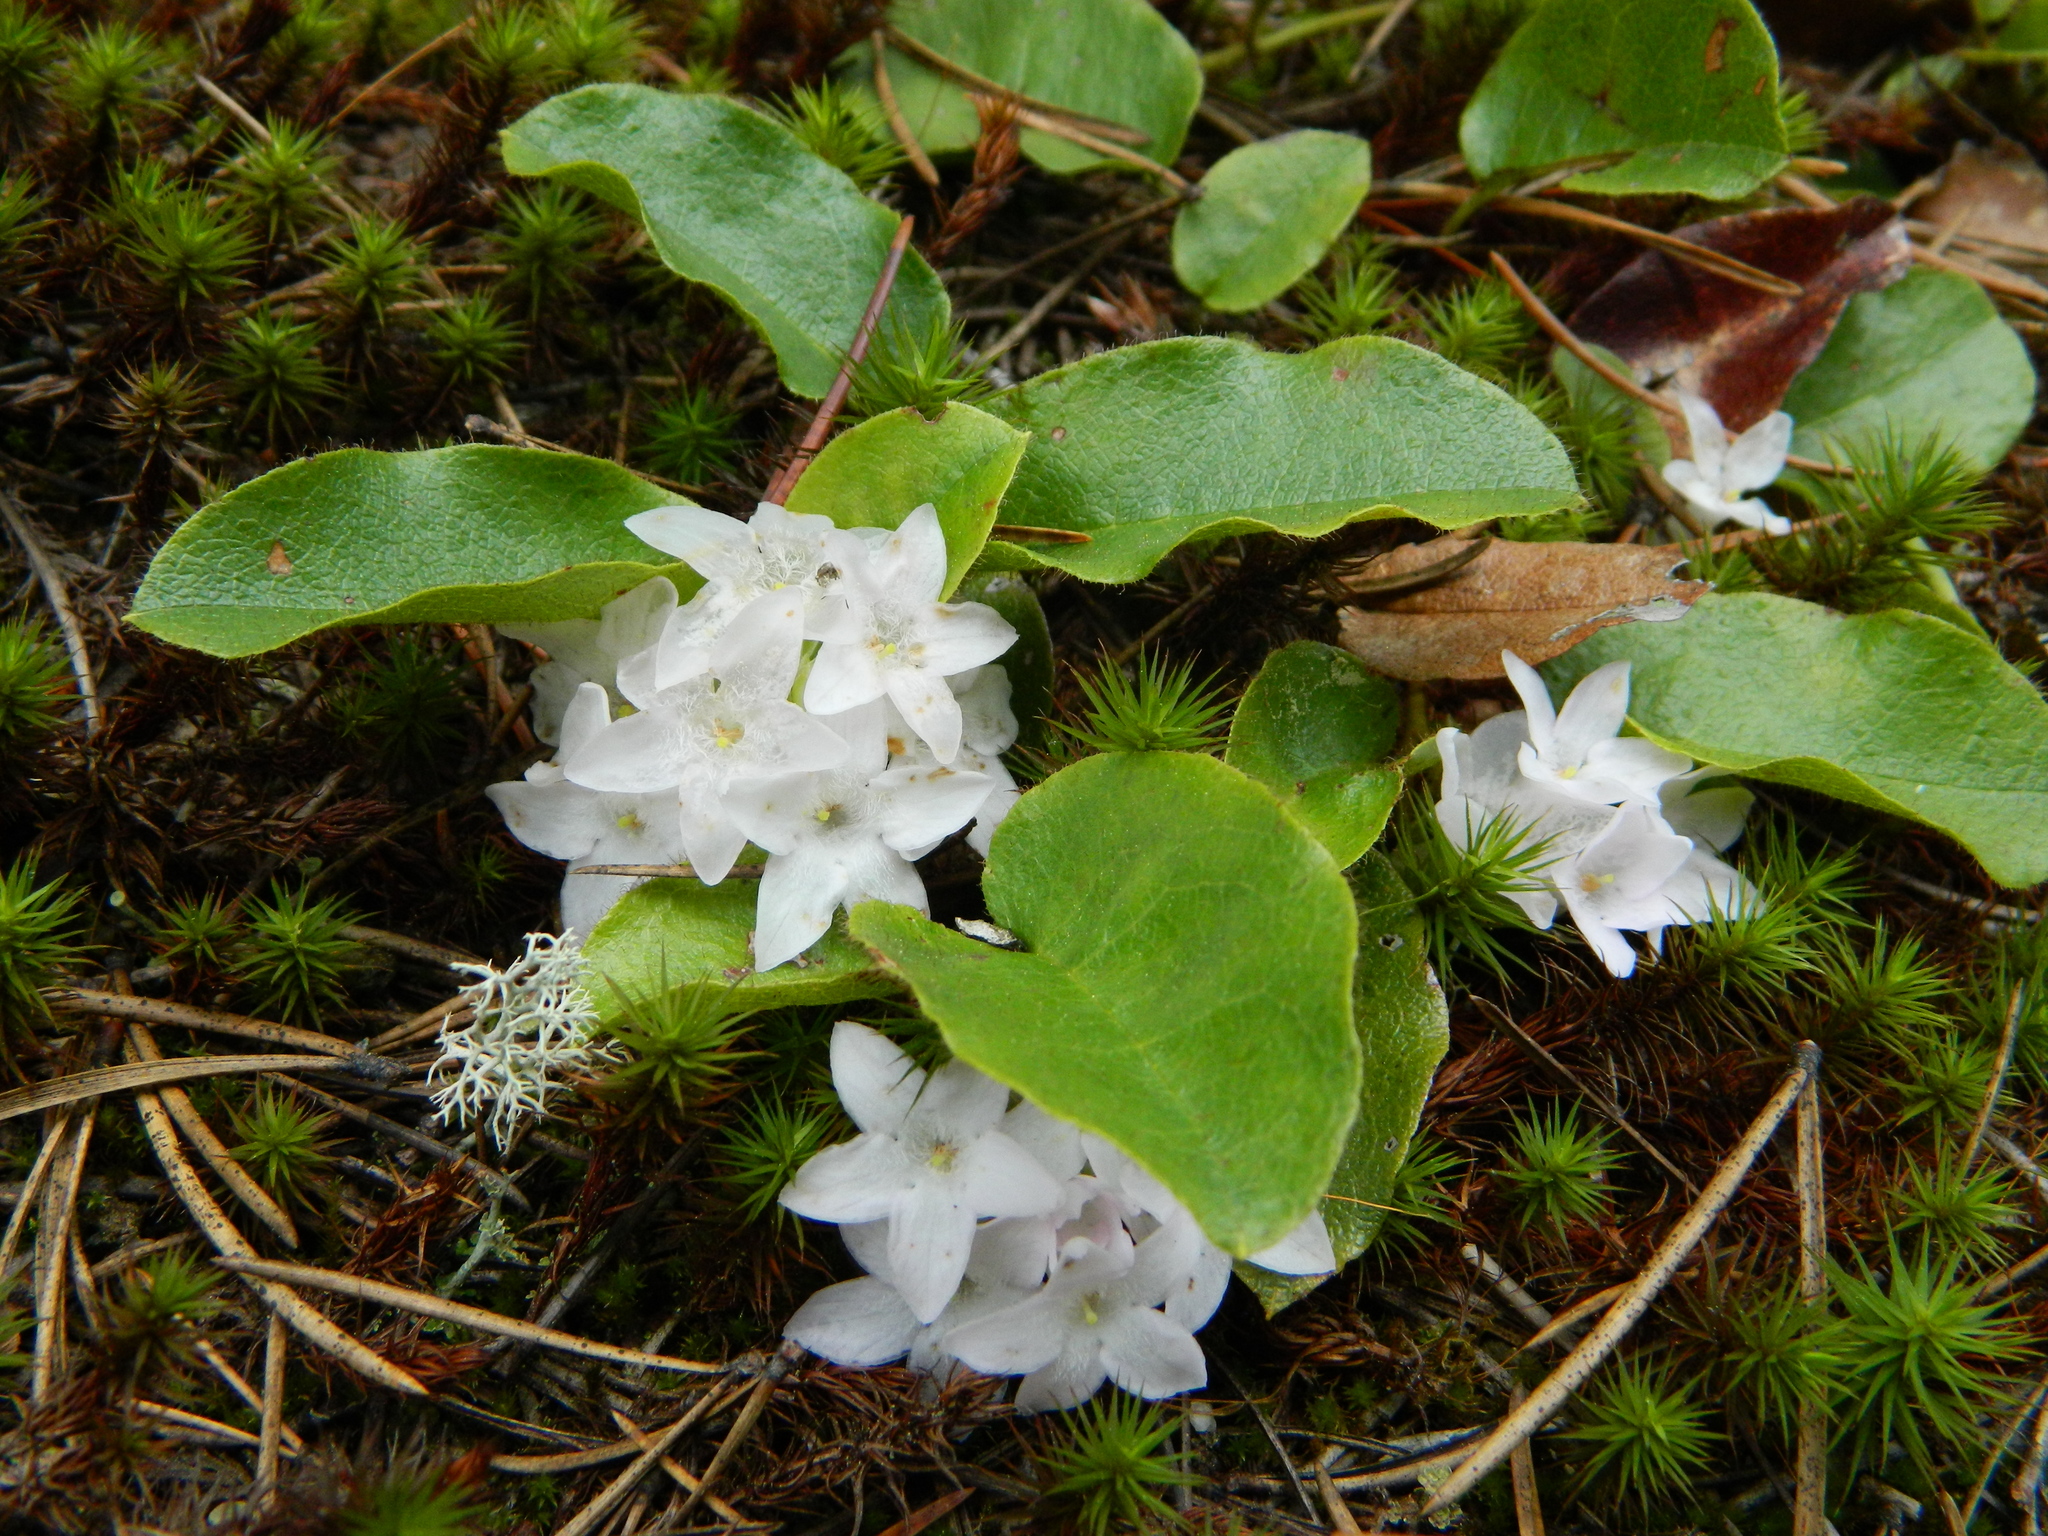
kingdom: Plantae
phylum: Tracheophyta
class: Magnoliopsida
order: Ericales
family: Ericaceae
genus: Epigaea
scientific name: Epigaea repens
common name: Gravelroot
